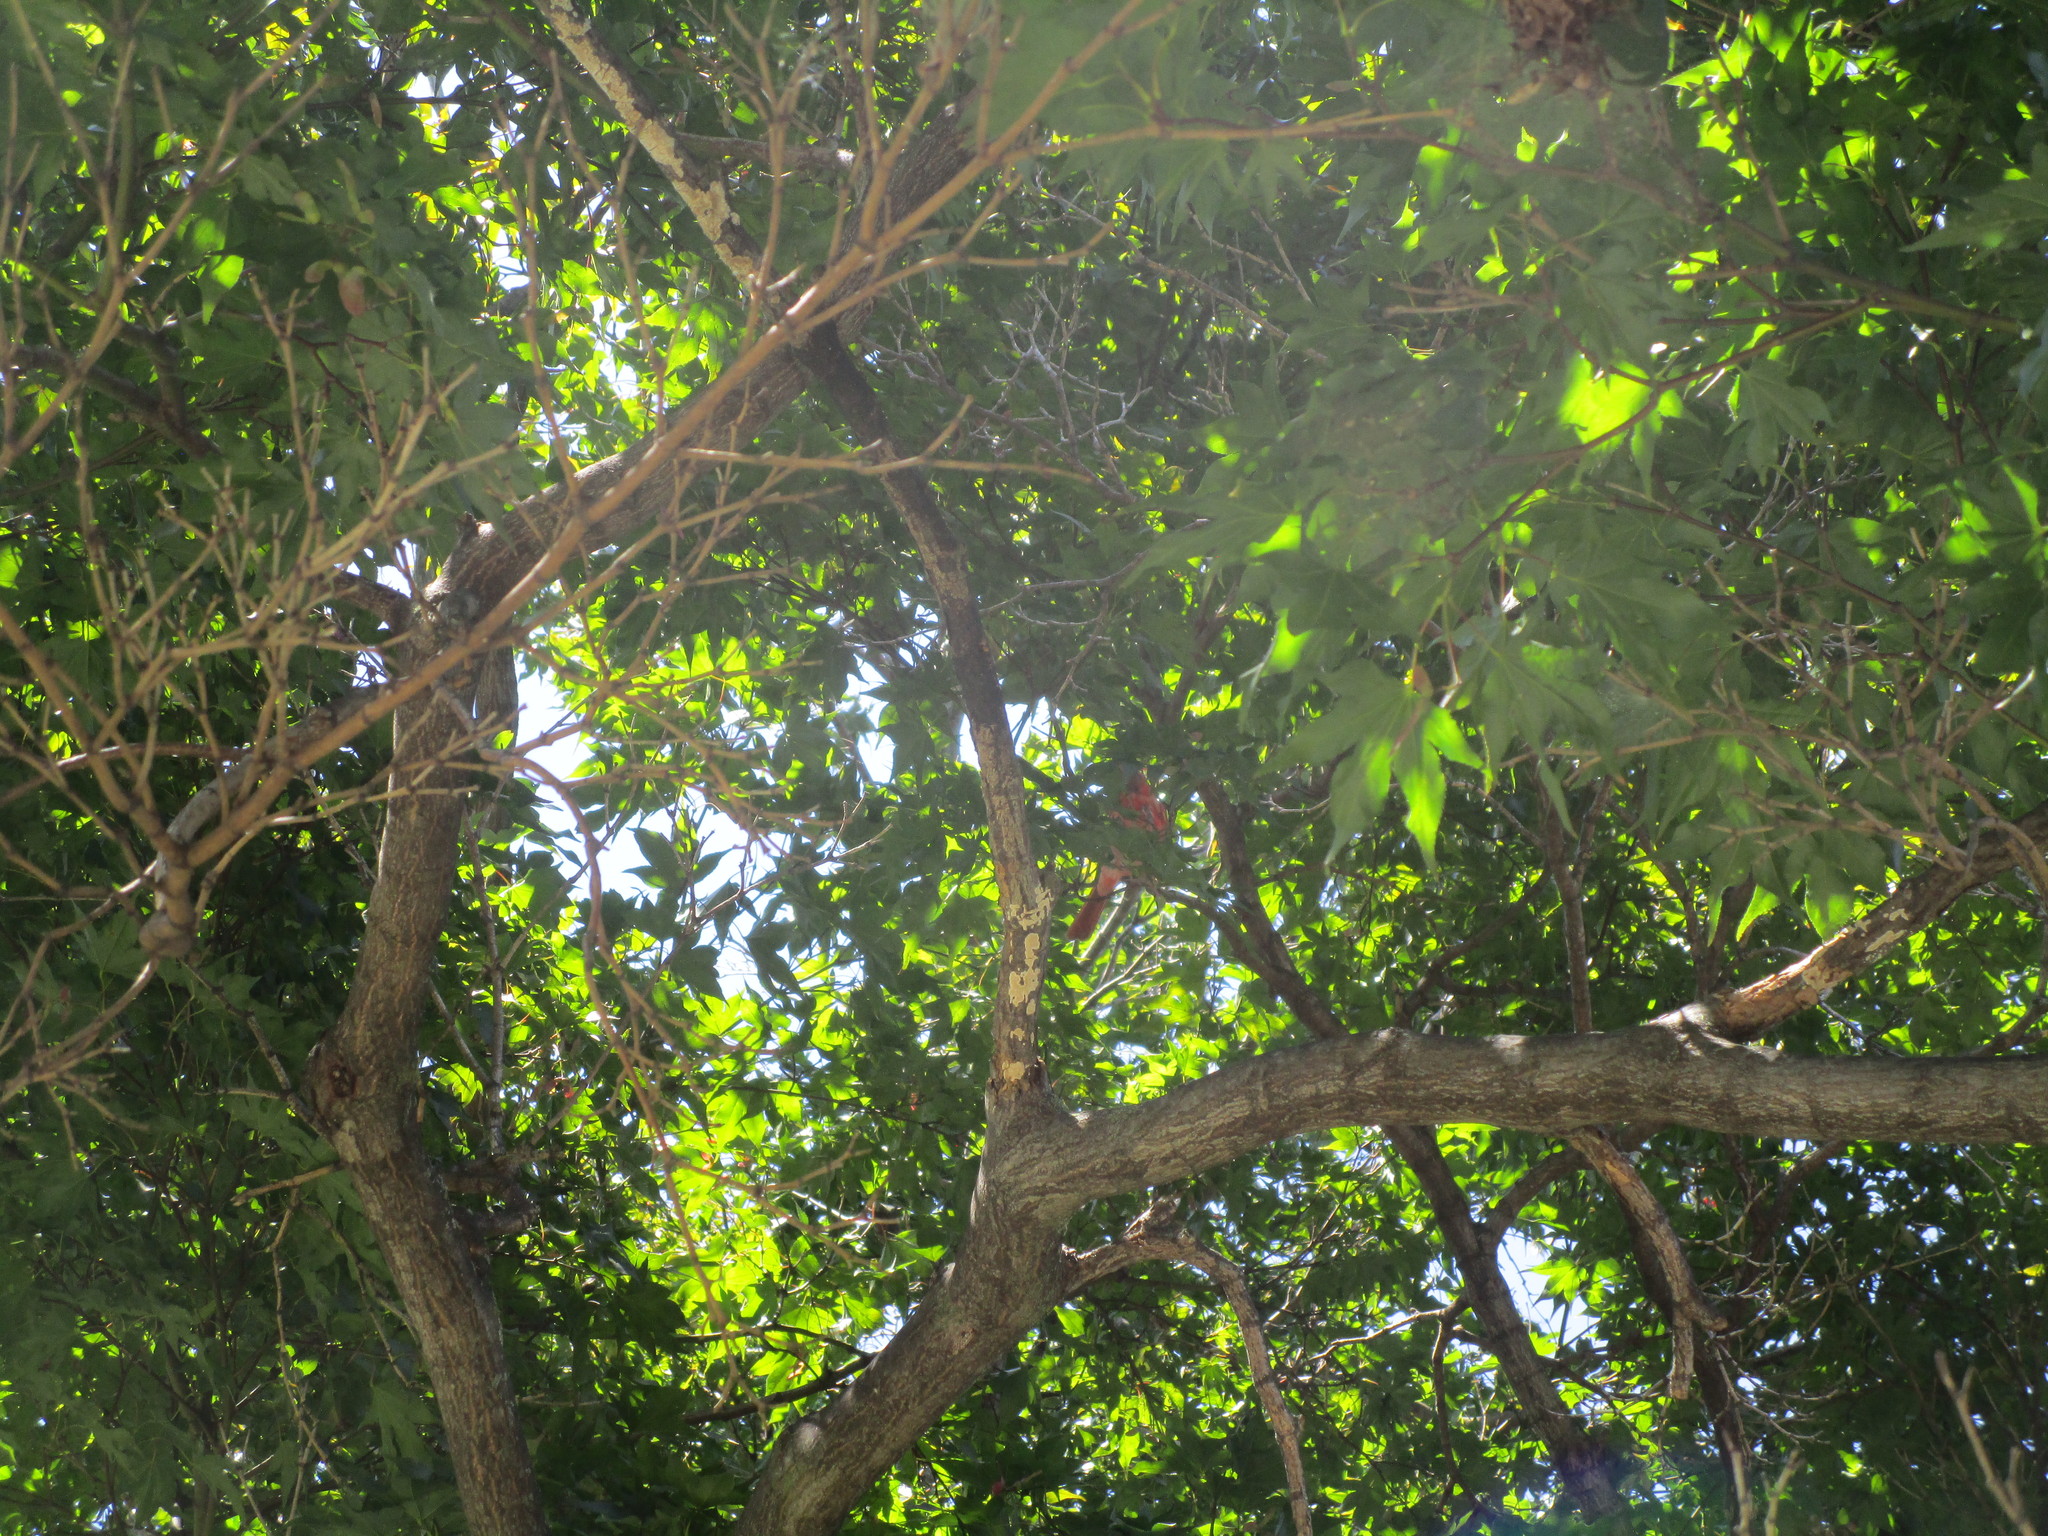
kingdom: Animalia
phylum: Chordata
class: Aves
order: Passeriformes
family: Cardinalidae
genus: Cardinalis
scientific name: Cardinalis cardinalis
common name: Northern cardinal
